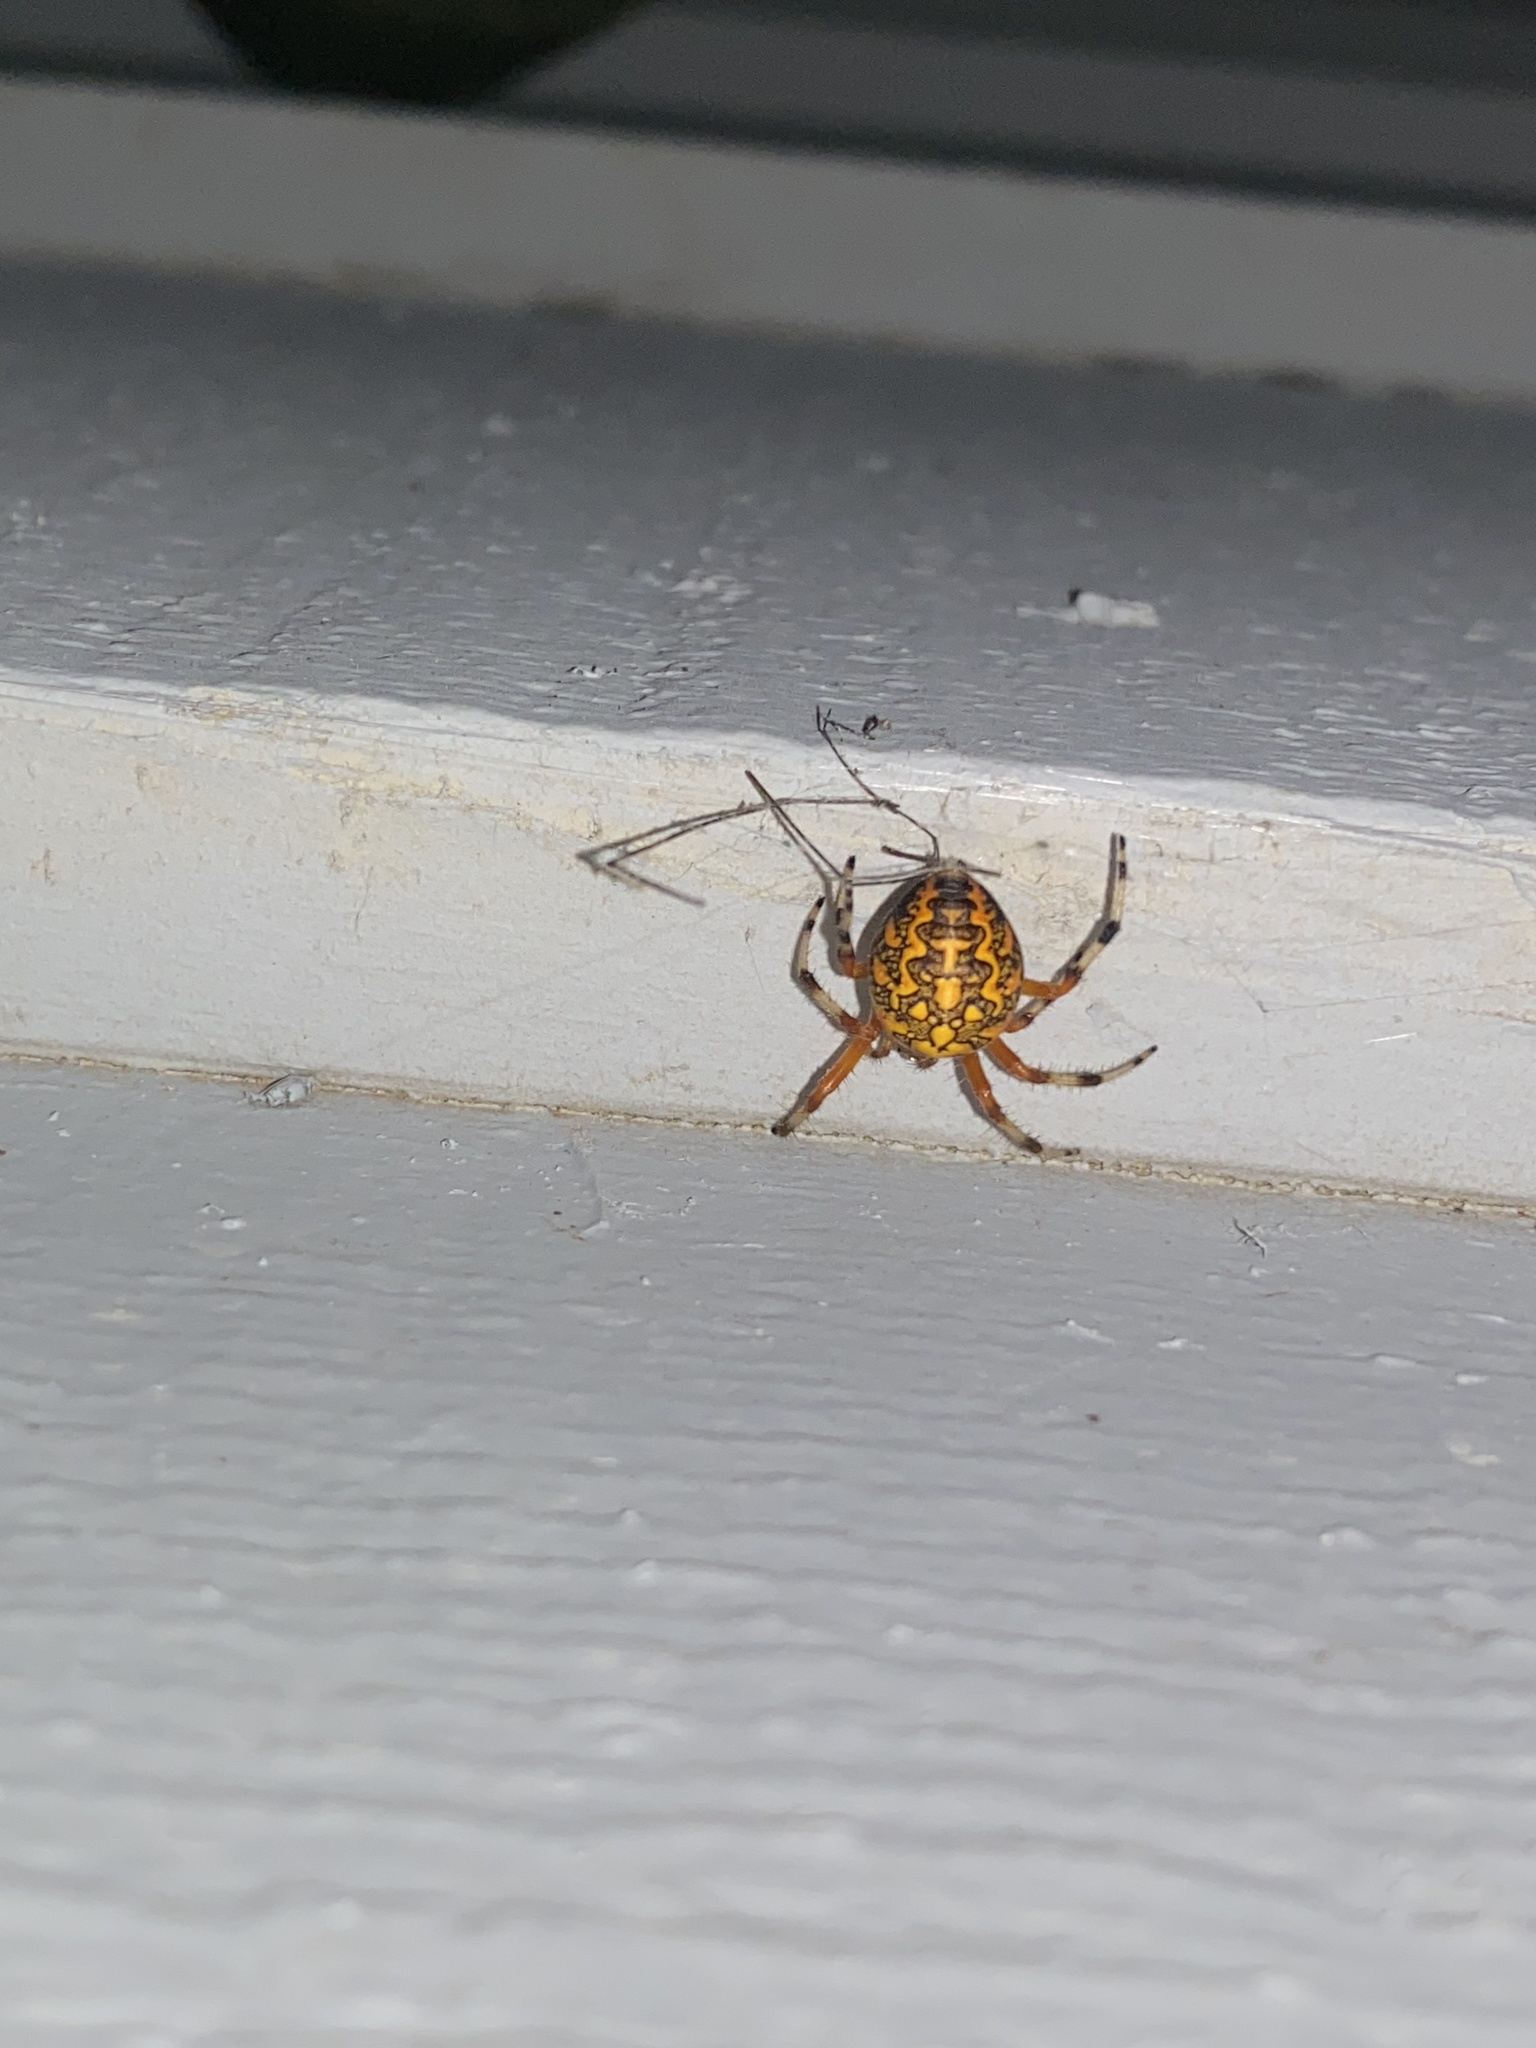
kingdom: Animalia
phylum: Arthropoda
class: Arachnida
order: Araneae
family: Araneidae
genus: Araneus
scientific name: Araneus marmoreus
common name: Marbled orbweaver
